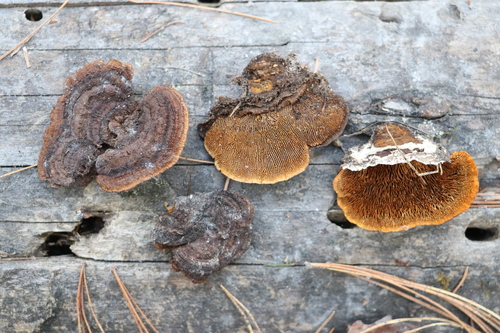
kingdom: Fungi
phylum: Basidiomycota
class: Agaricomycetes
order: Gloeophyllales
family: Gloeophyllaceae
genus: Gloeophyllum
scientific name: Gloeophyllum sepiarium
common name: Conifer mazegill
